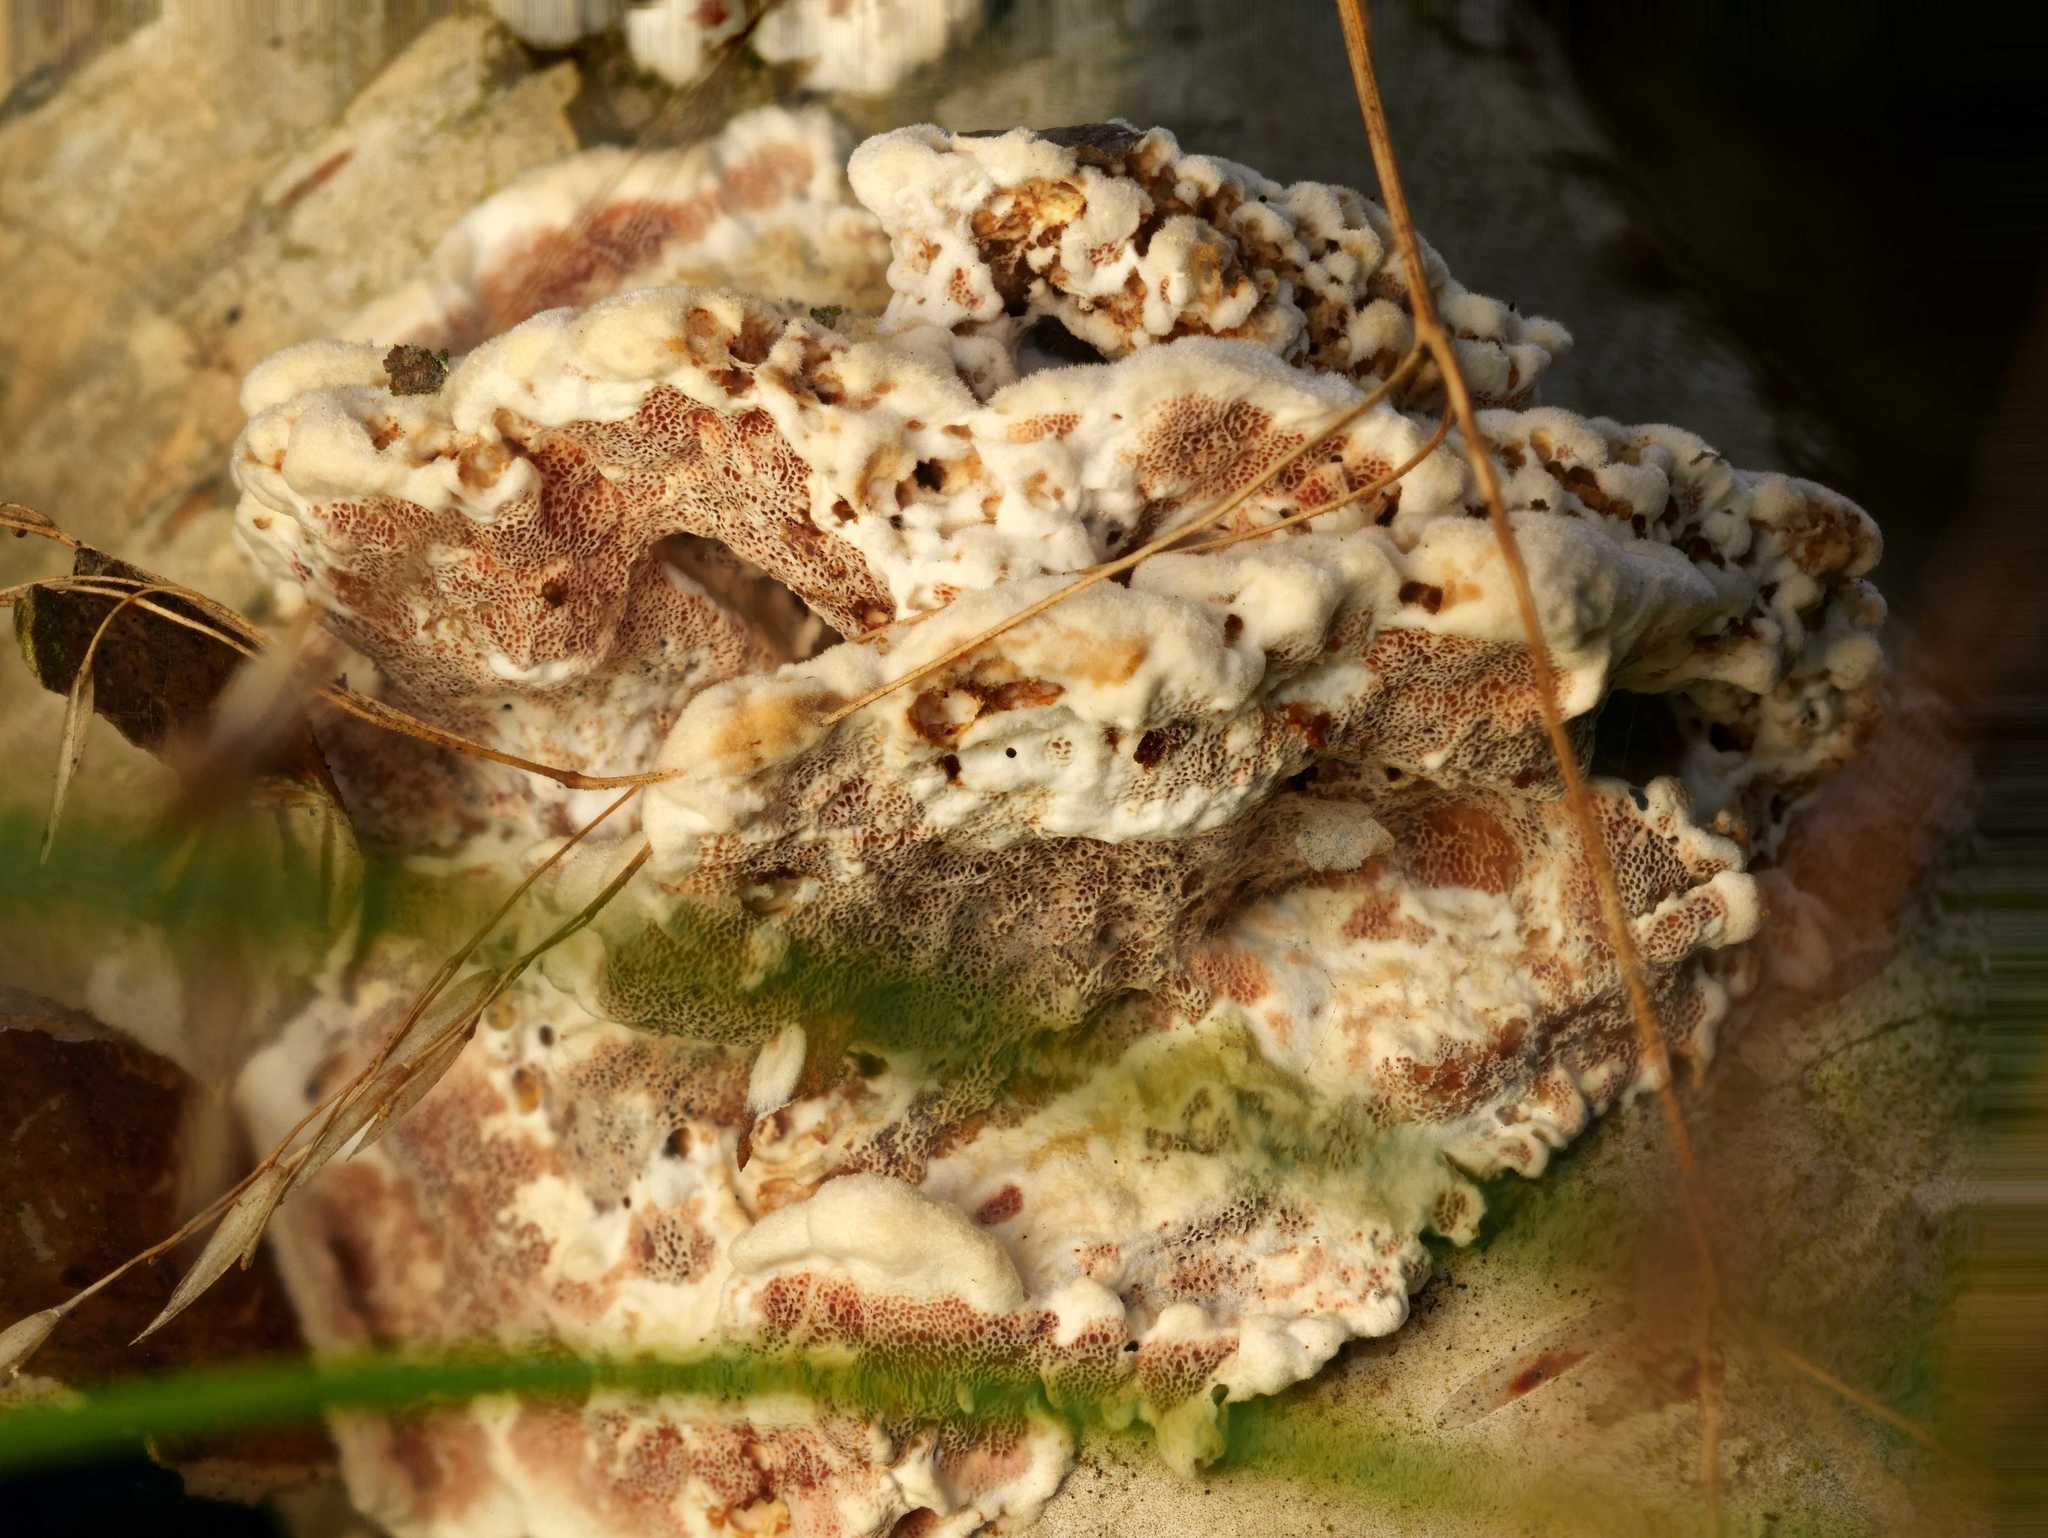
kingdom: Fungi
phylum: Basidiomycota
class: Agaricomycetes
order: Polyporales
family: Podoscyphaceae
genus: Abortiporus
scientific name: Abortiporus biennis
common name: Blushing rosette
